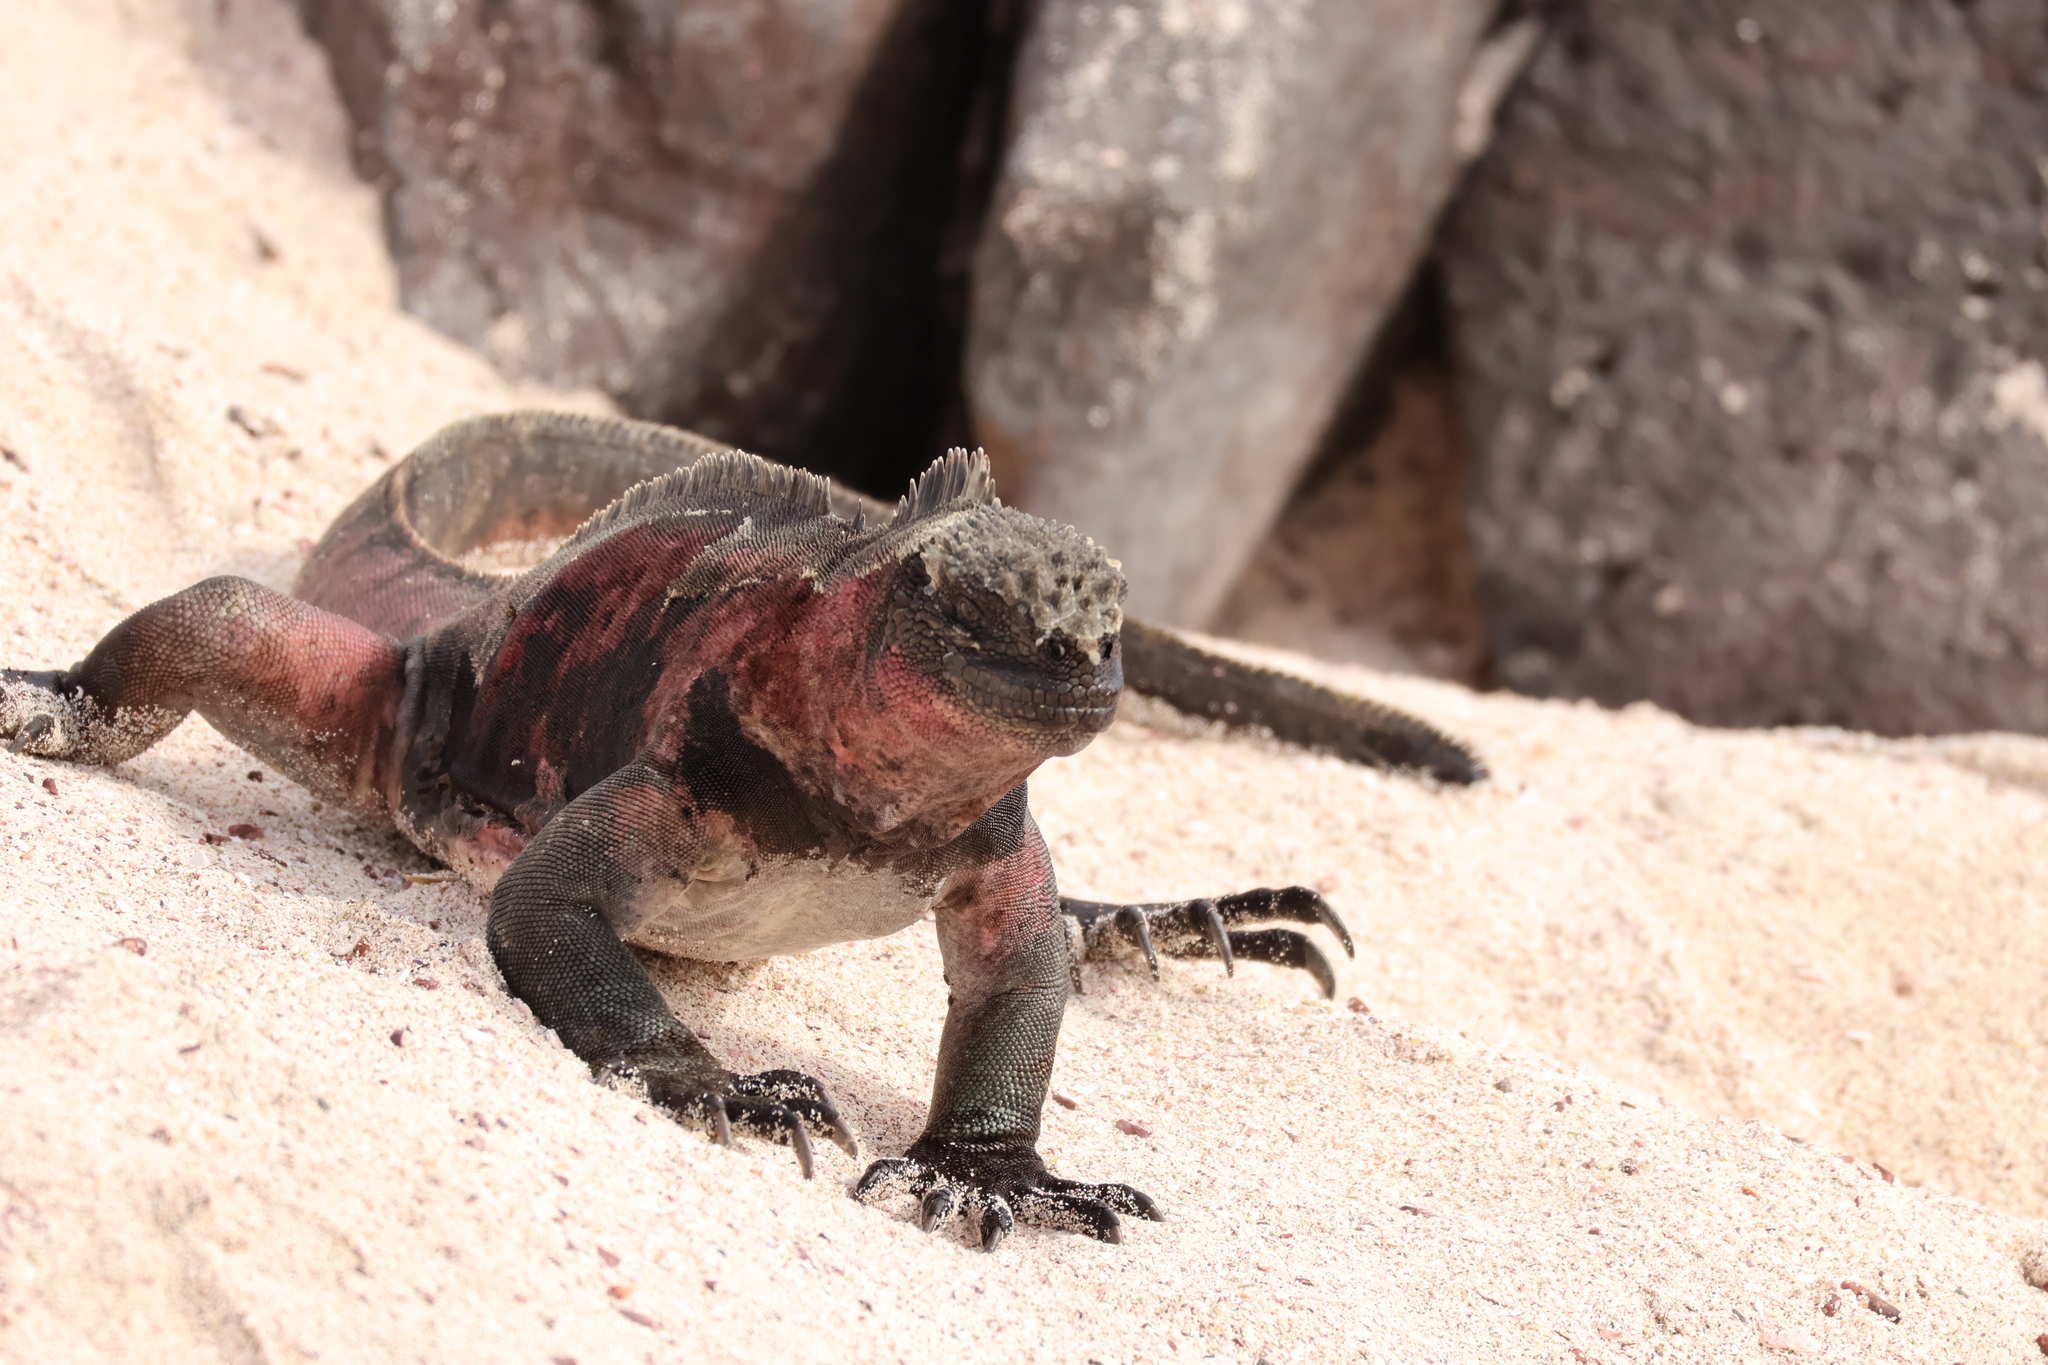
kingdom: Animalia
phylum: Chordata
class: Squamata
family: Iguanidae
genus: Amblyrhynchus
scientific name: Amblyrhynchus cristatus
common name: Marine iguana
